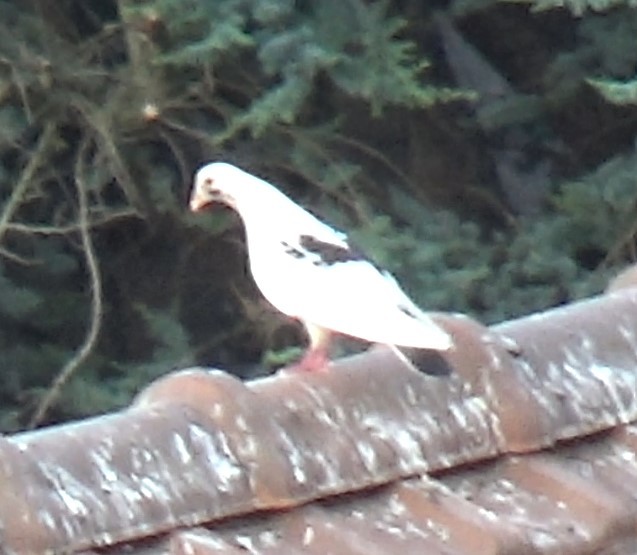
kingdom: Animalia
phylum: Chordata
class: Aves
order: Columbiformes
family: Columbidae
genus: Columba
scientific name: Columba livia
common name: Rock pigeon
